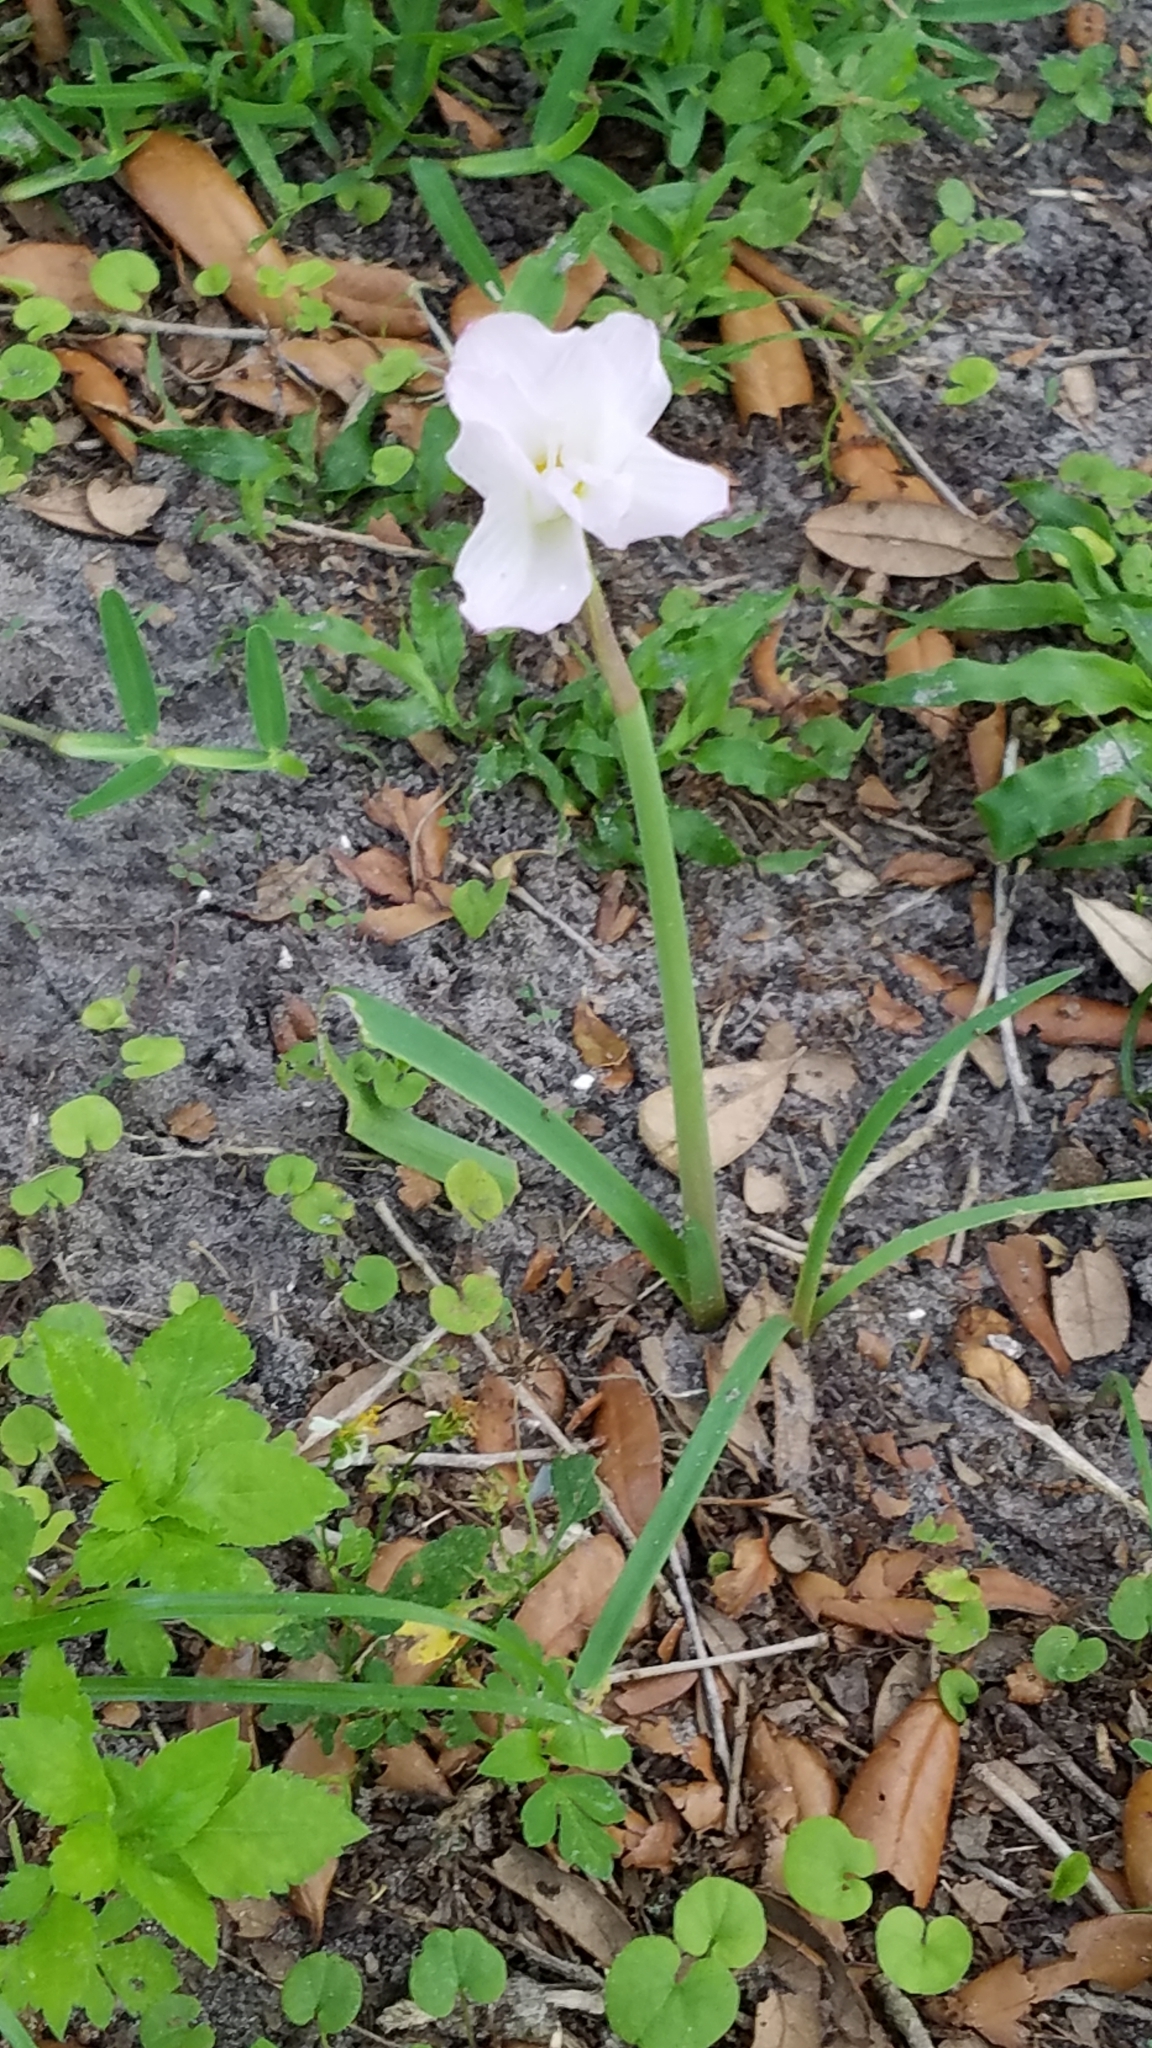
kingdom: Plantae
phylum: Tracheophyta
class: Liliopsida
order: Asparagales
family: Amaryllidaceae
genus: Zephyranthes
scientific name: Zephyranthes drummondii
